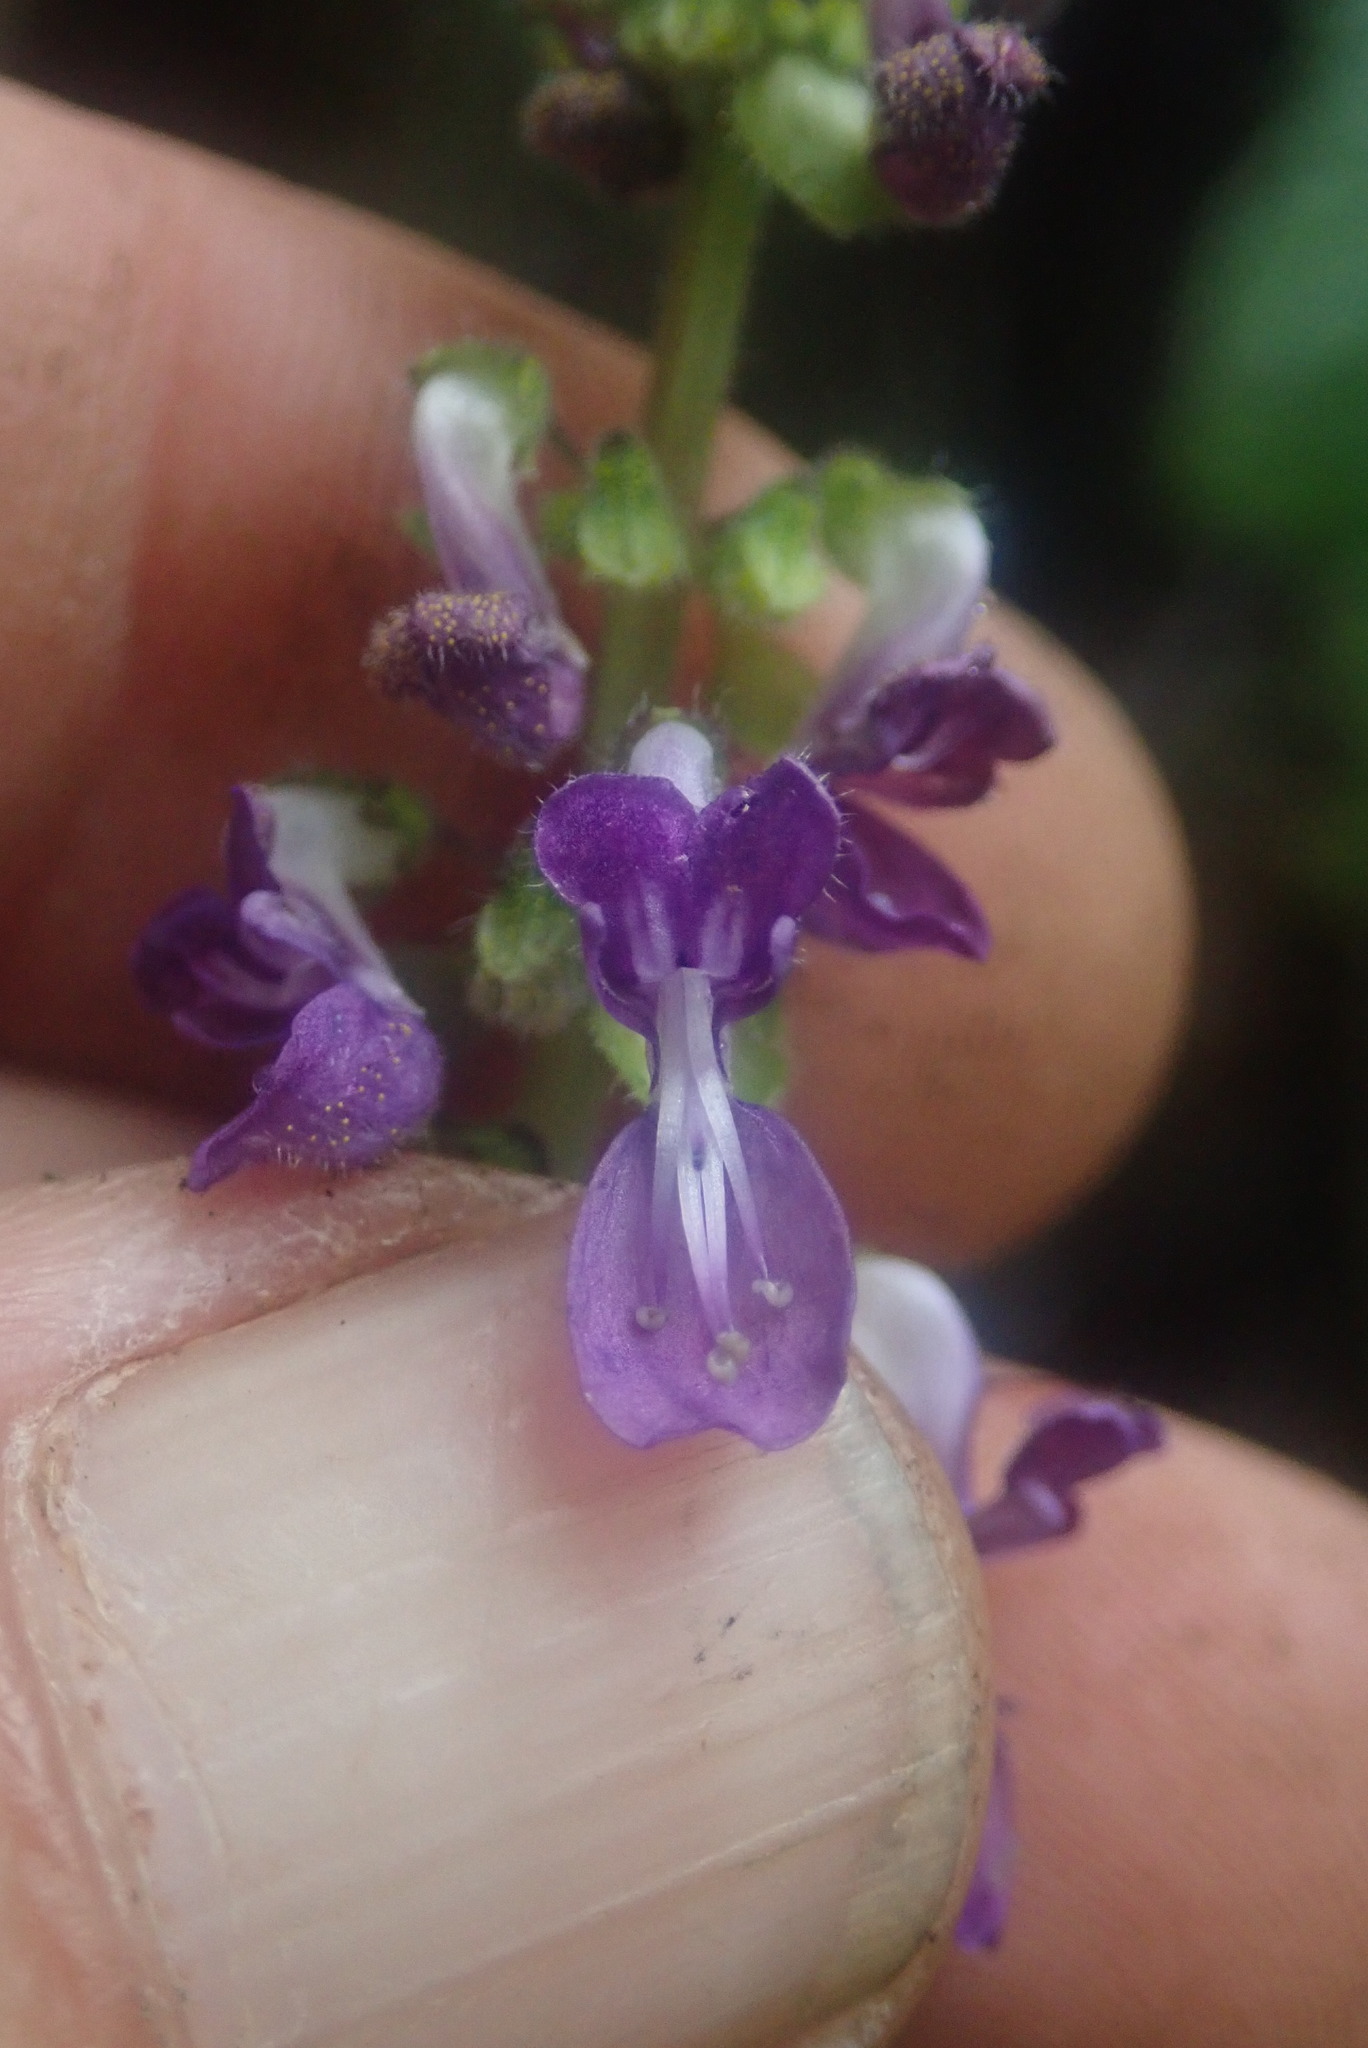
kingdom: Plantae
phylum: Tracheophyta
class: Magnoliopsida
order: Lamiales
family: Lamiaceae
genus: Coleus
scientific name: Coleus grandidentatus
